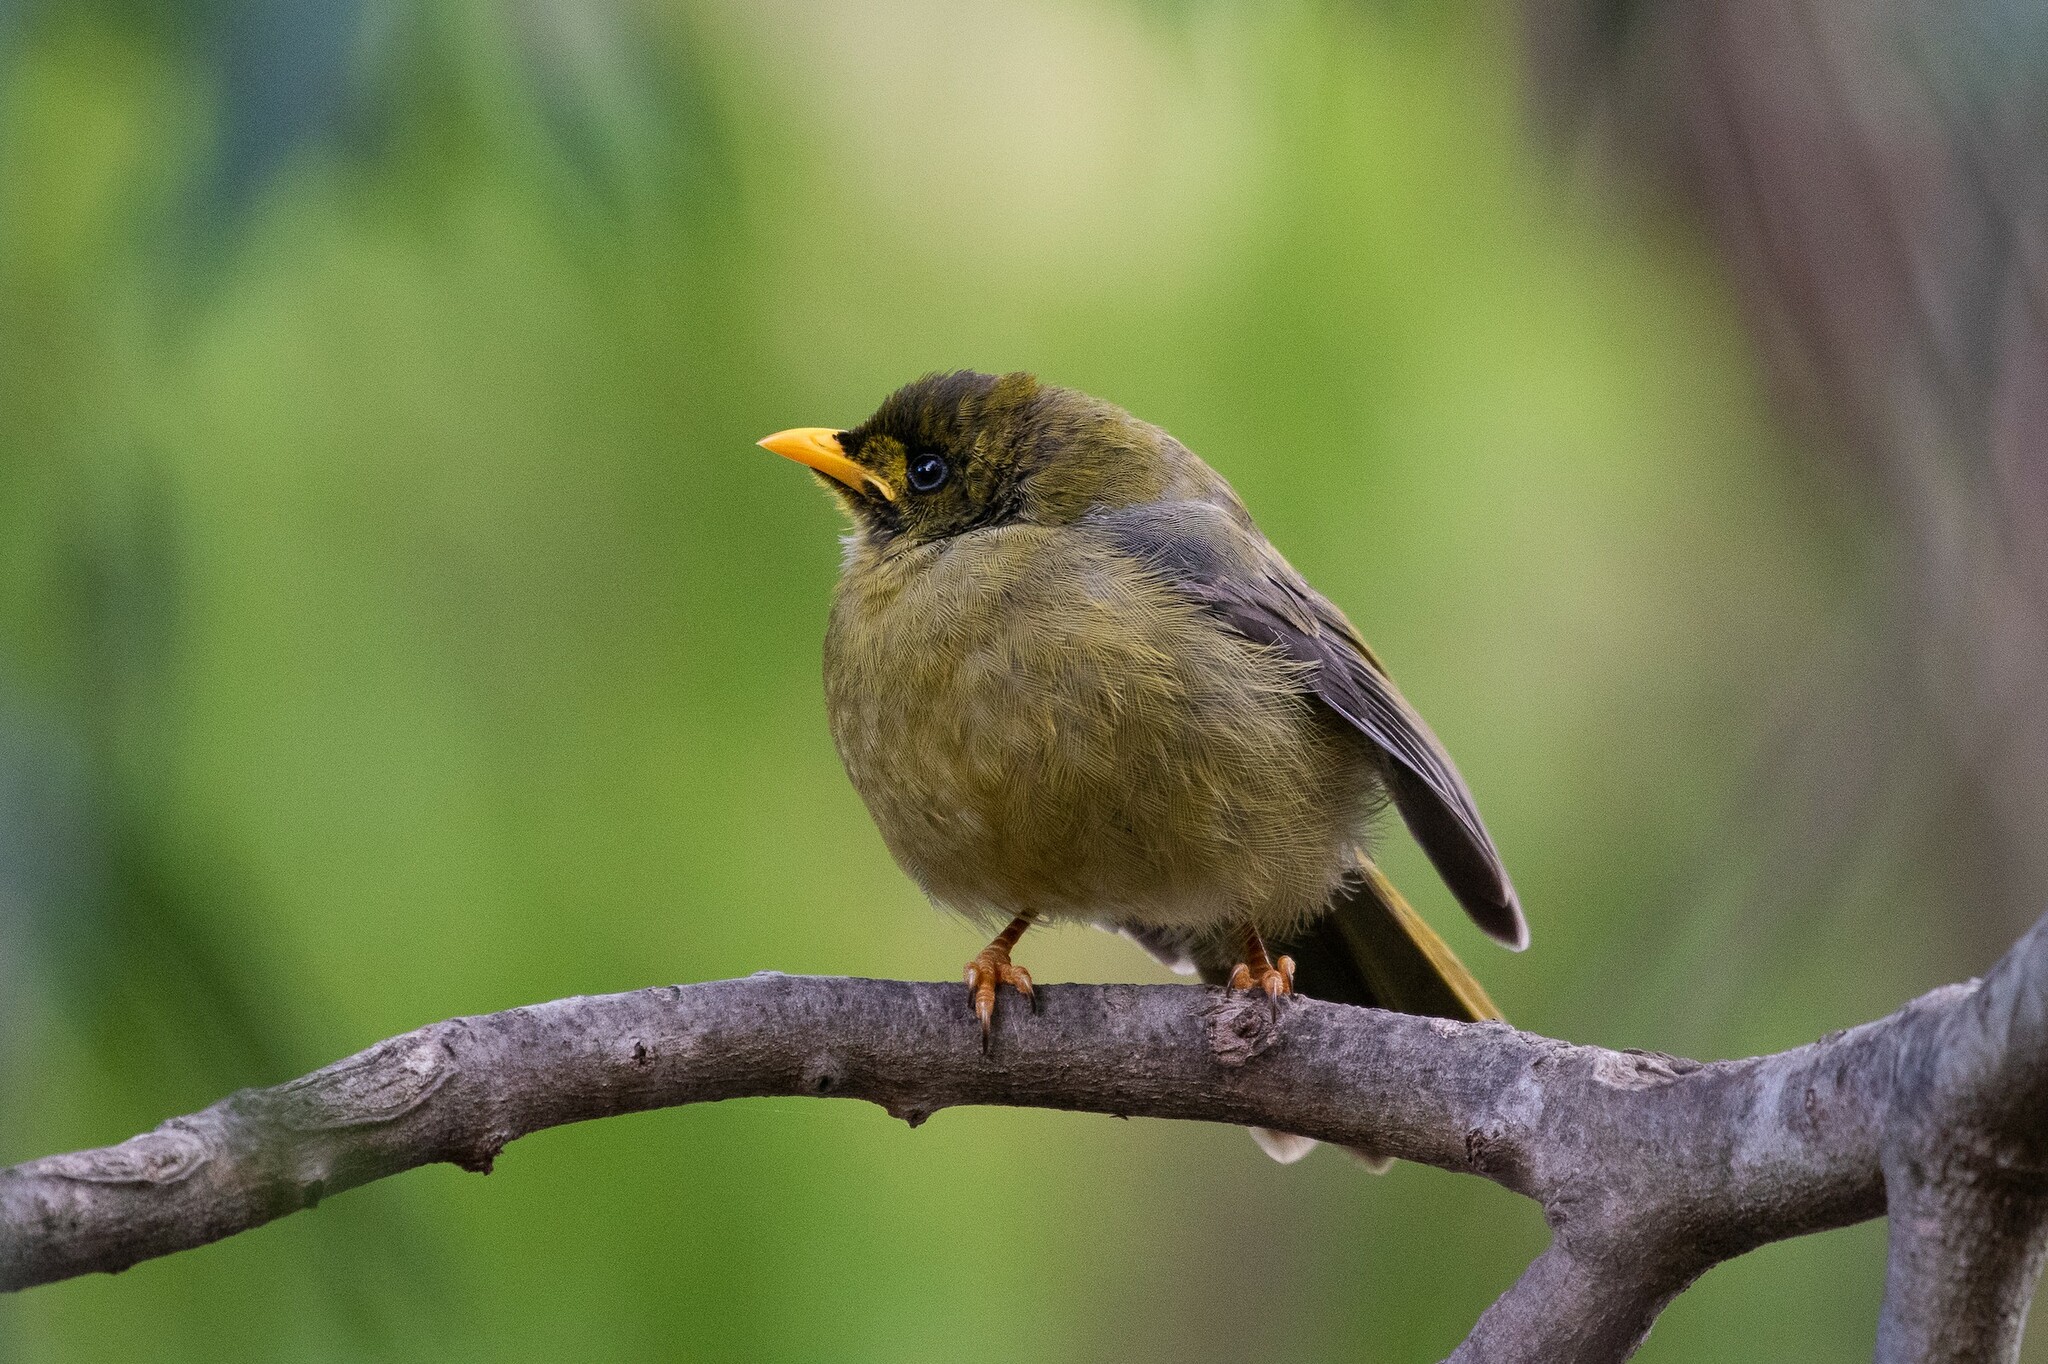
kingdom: Animalia
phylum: Chordata
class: Aves
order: Passeriformes
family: Meliphagidae
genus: Manorina
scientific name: Manorina melanophrys
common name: Bell miner
